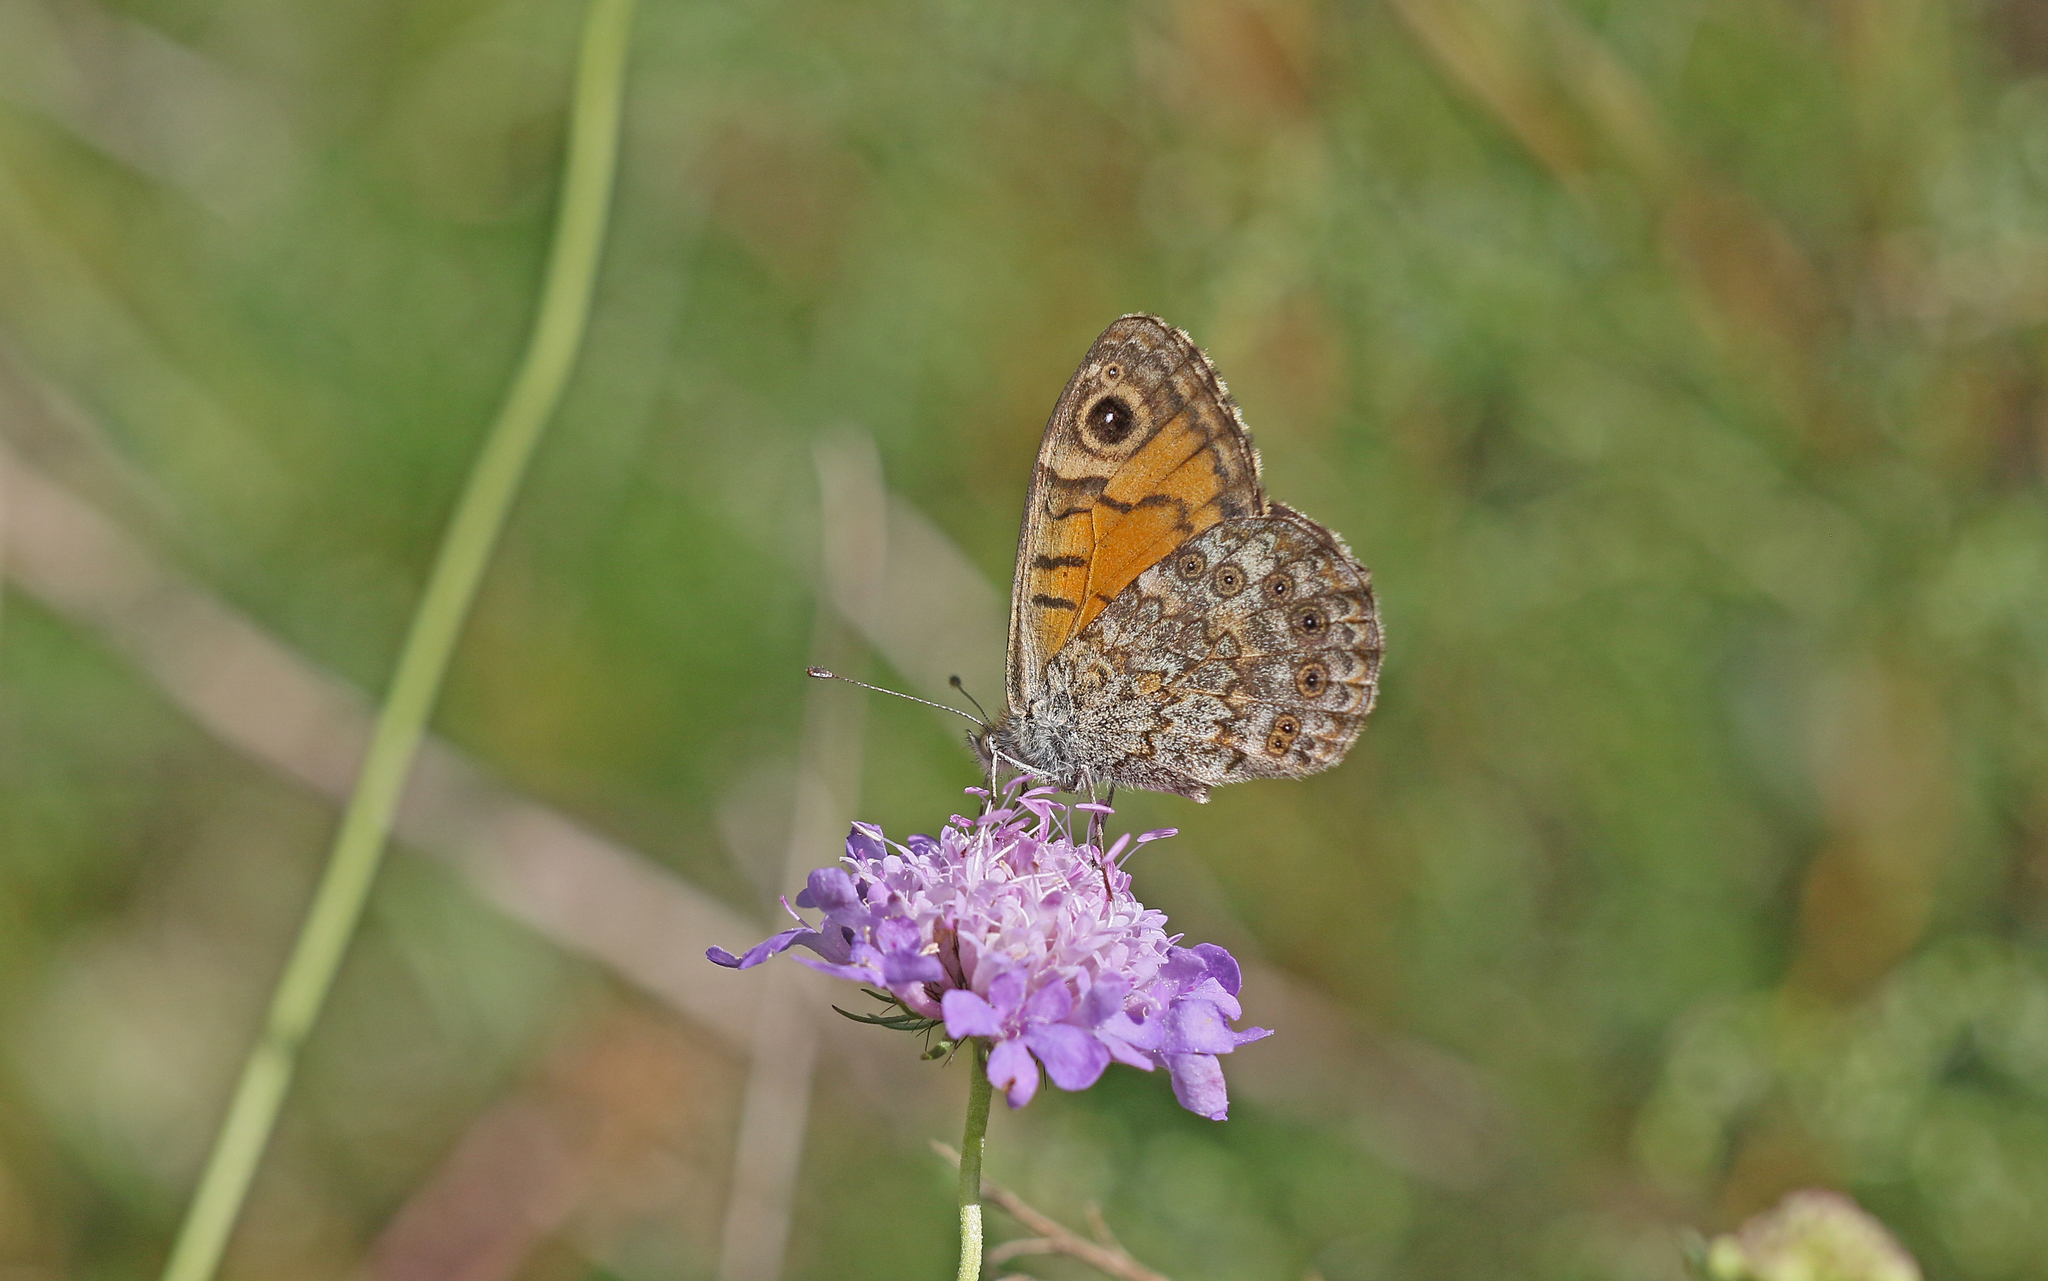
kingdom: Animalia
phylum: Arthropoda
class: Insecta
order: Lepidoptera
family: Nymphalidae
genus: Pararge
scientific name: Pararge Lasiommata megera
